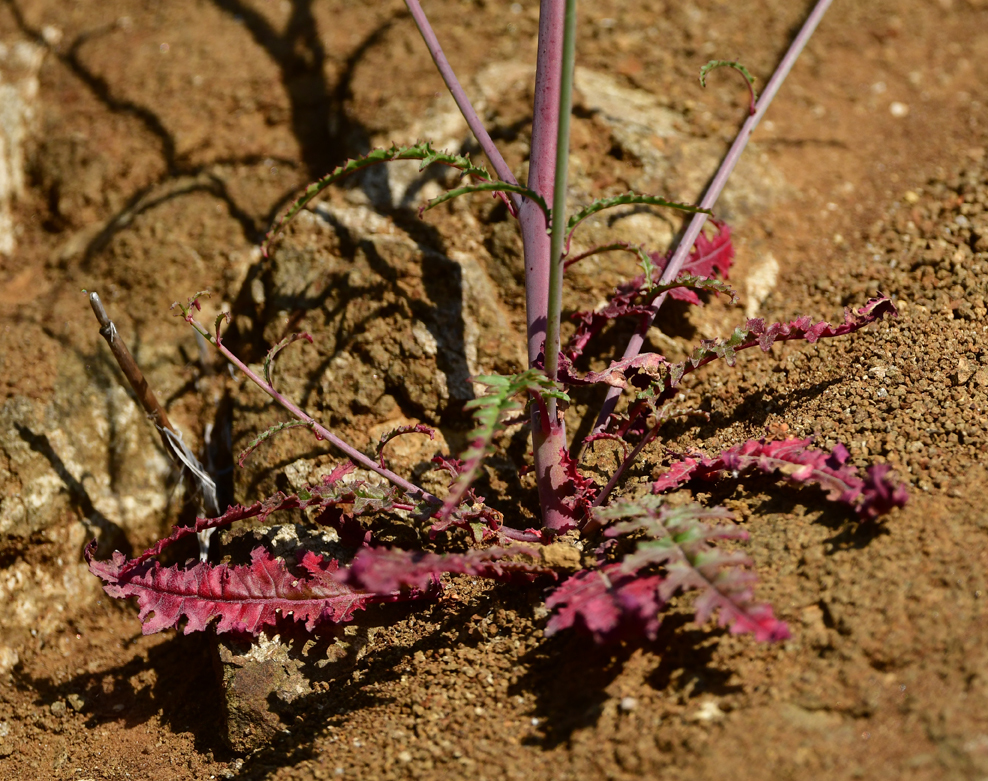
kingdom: Plantae
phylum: Tracheophyta
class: Magnoliopsida
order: Myrtales
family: Onagraceae
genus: Eulobus
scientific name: Eulobus californicus
